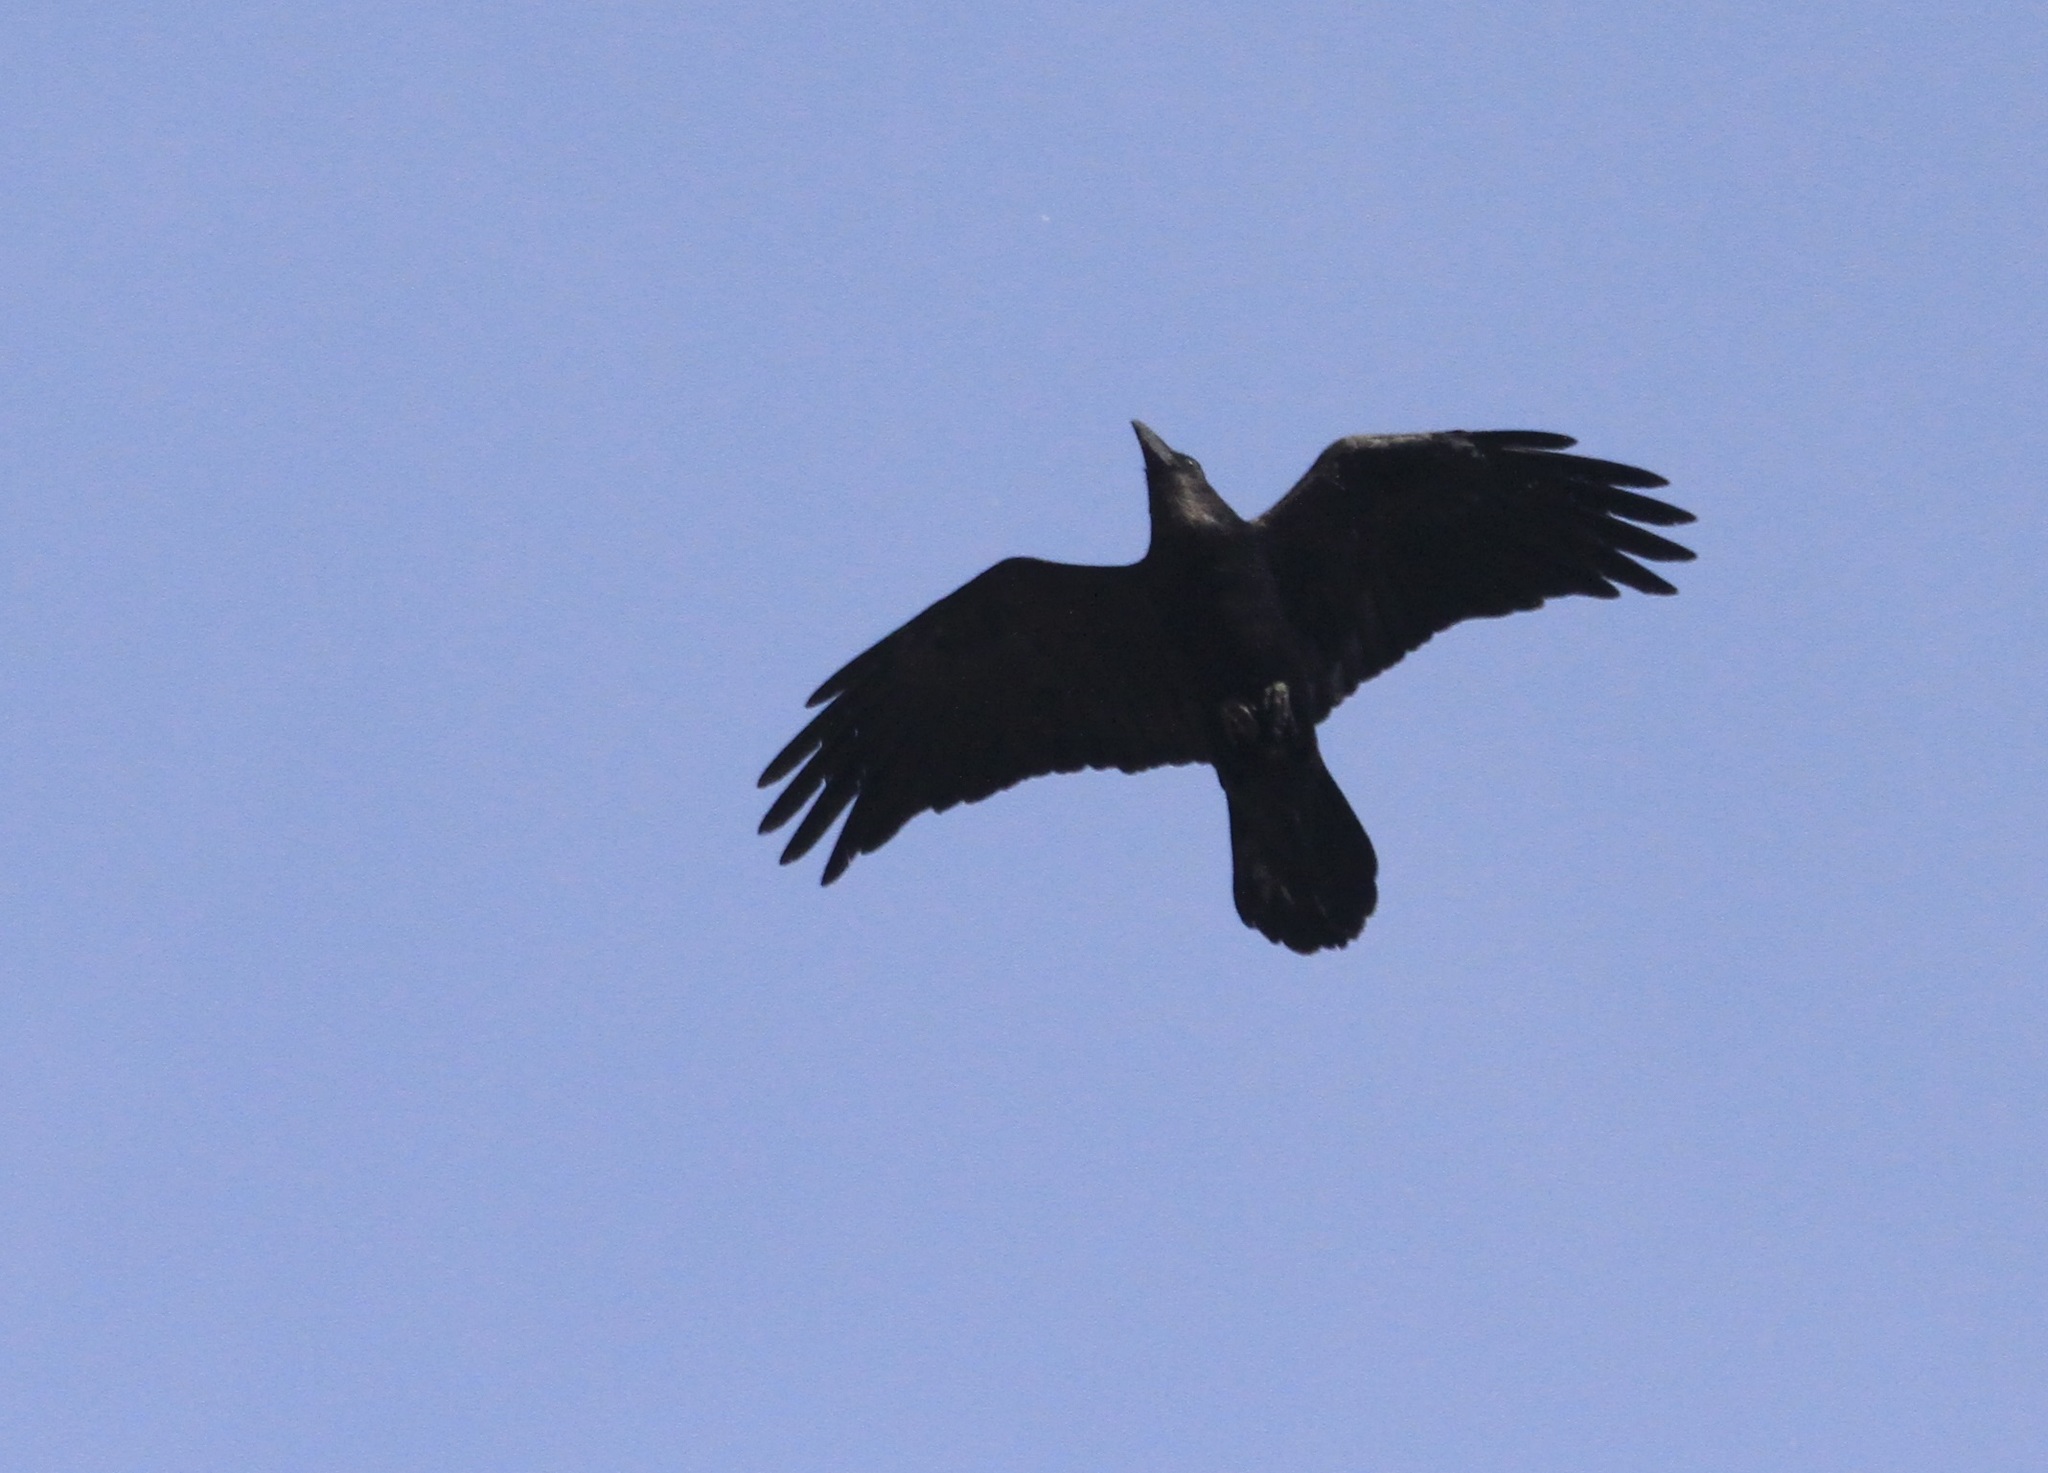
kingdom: Animalia
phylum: Chordata
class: Aves
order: Passeriformes
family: Corvidae
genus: Corvus
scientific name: Corvus corax
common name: Common raven
